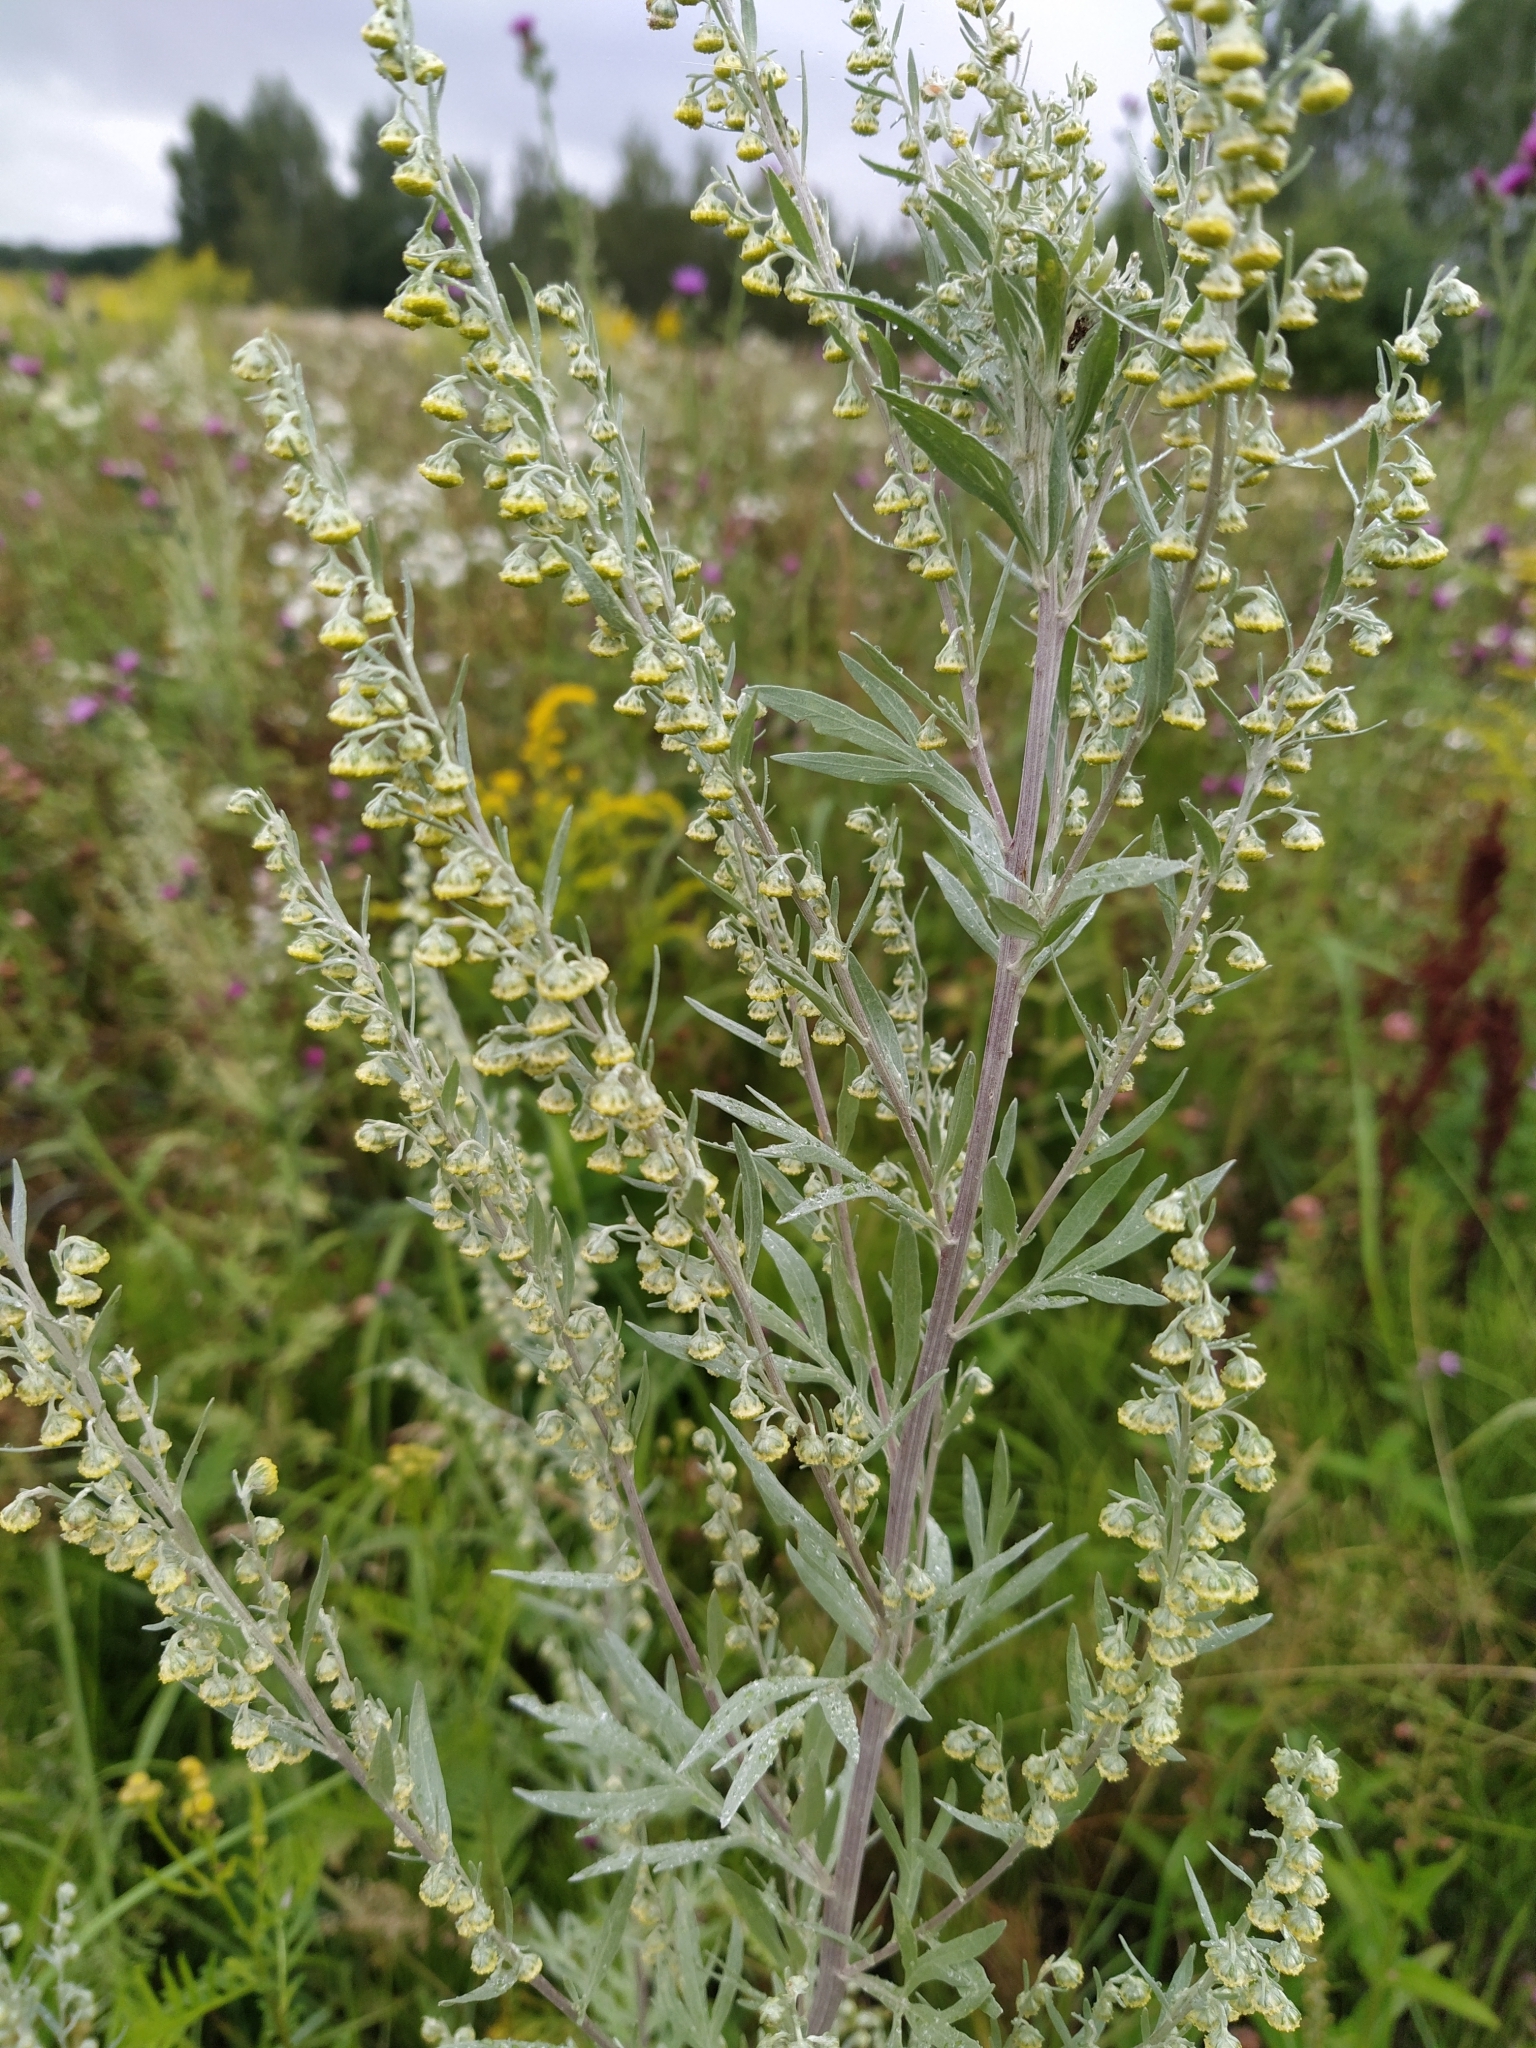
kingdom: Plantae
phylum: Tracheophyta
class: Magnoliopsida
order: Asterales
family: Asteraceae
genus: Artemisia
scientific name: Artemisia absinthium
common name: Wormwood
